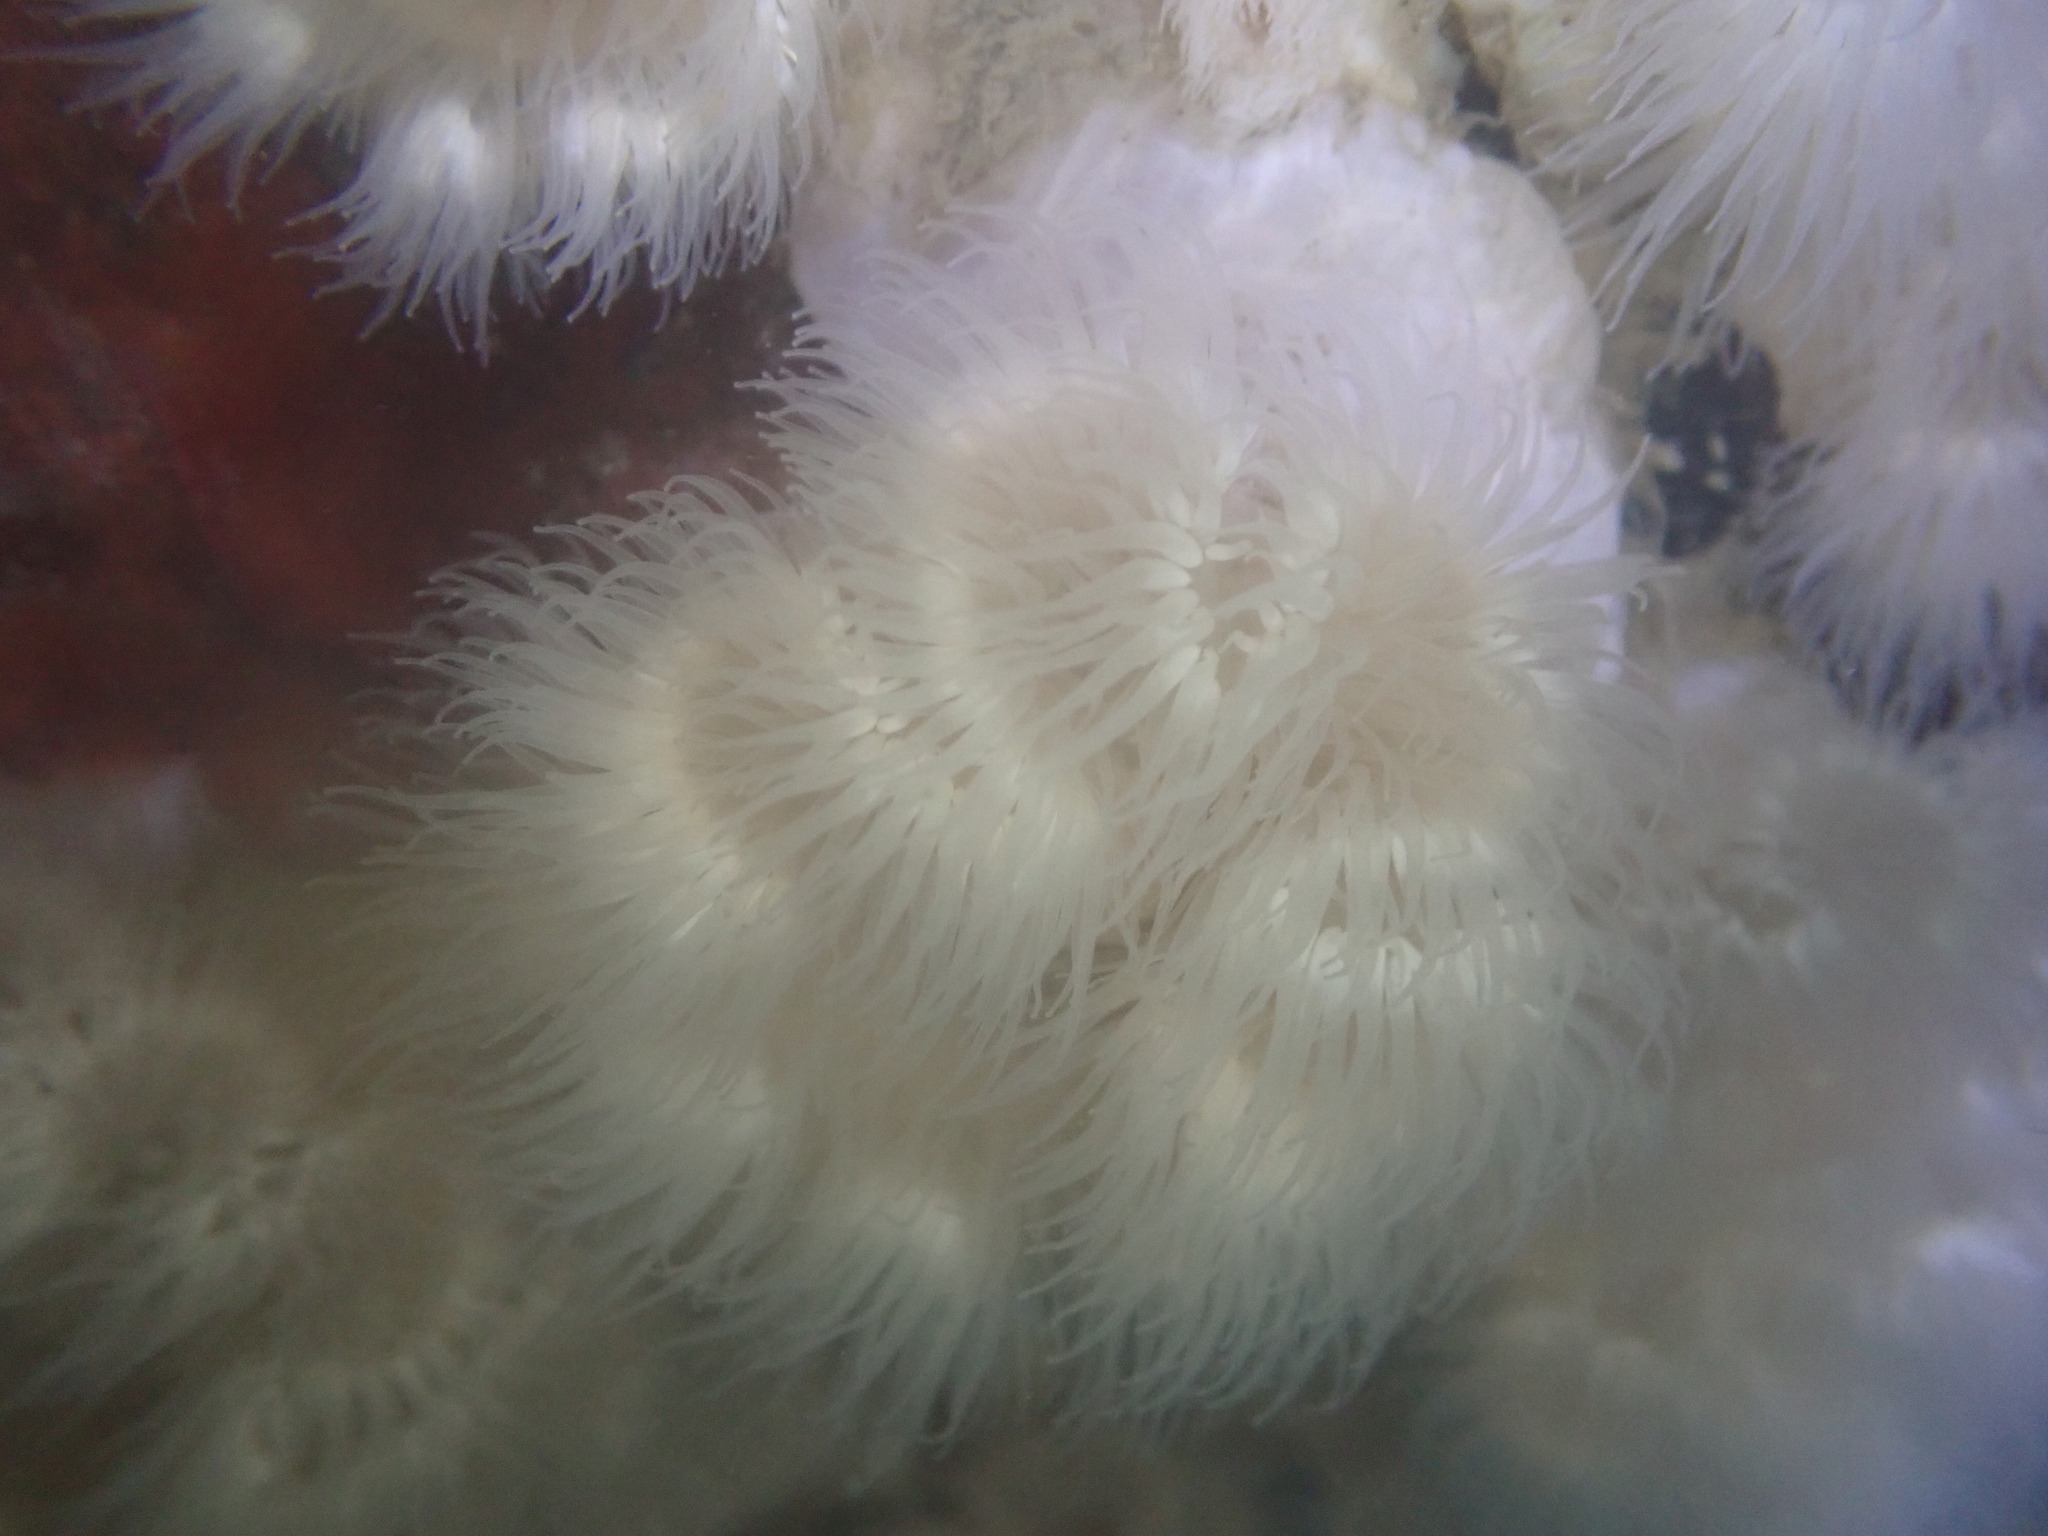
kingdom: Animalia
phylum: Cnidaria
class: Anthozoa
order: Actiniaria
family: Metridiidae
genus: Metridium
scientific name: Metridium senile
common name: Clonal plumose anemone
